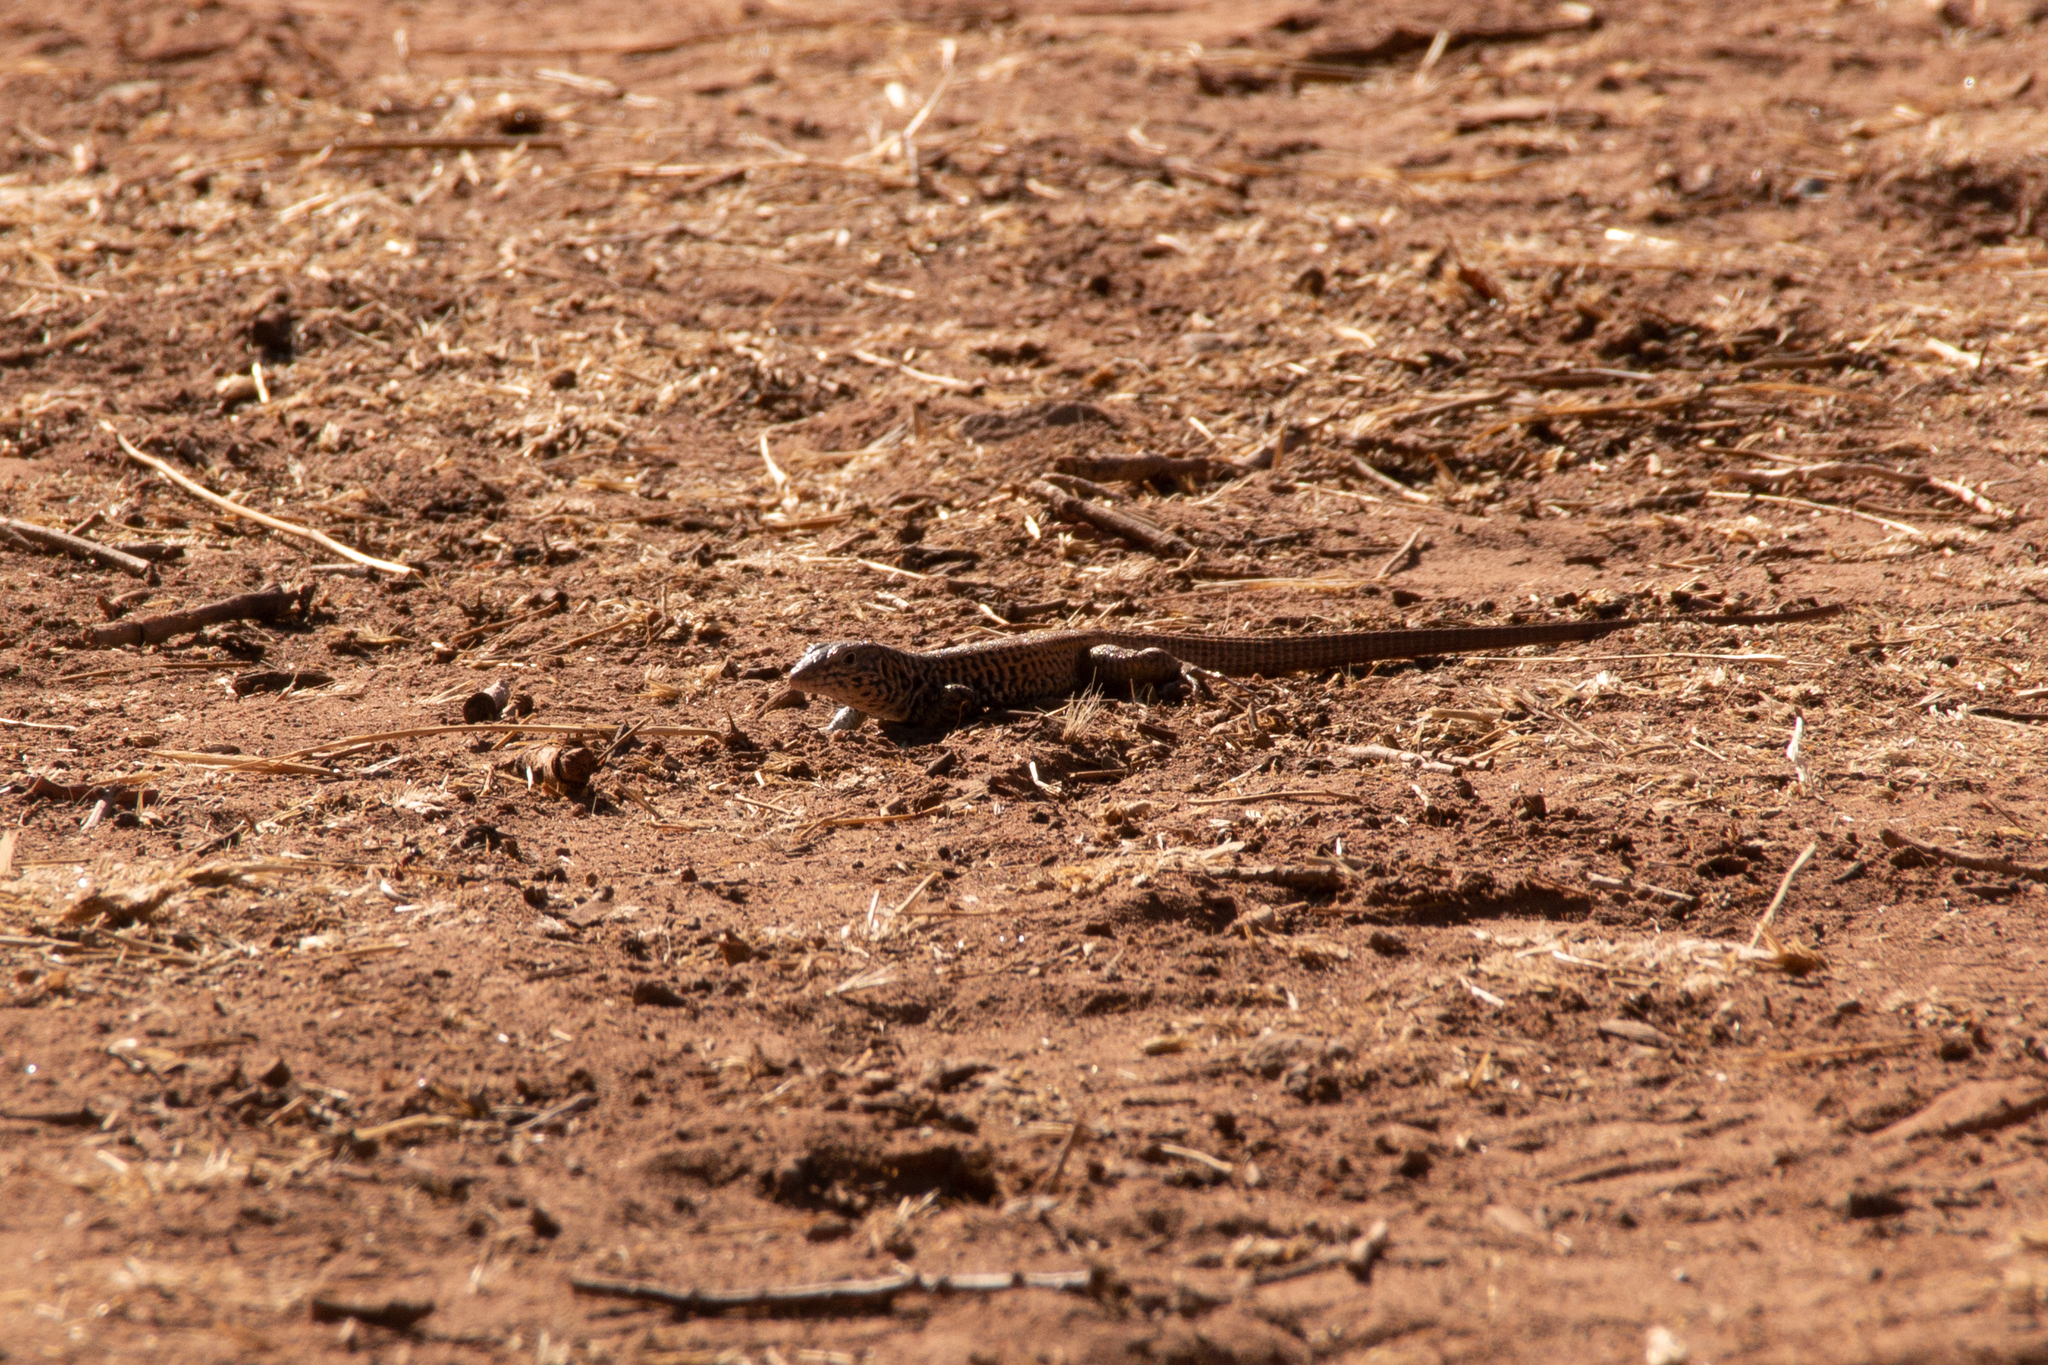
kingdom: Animalia
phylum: Chordata
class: Squamata
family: Teiidae
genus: Aspidoscelis
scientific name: Aspidoscelis tigris
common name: Tiger whiptail
